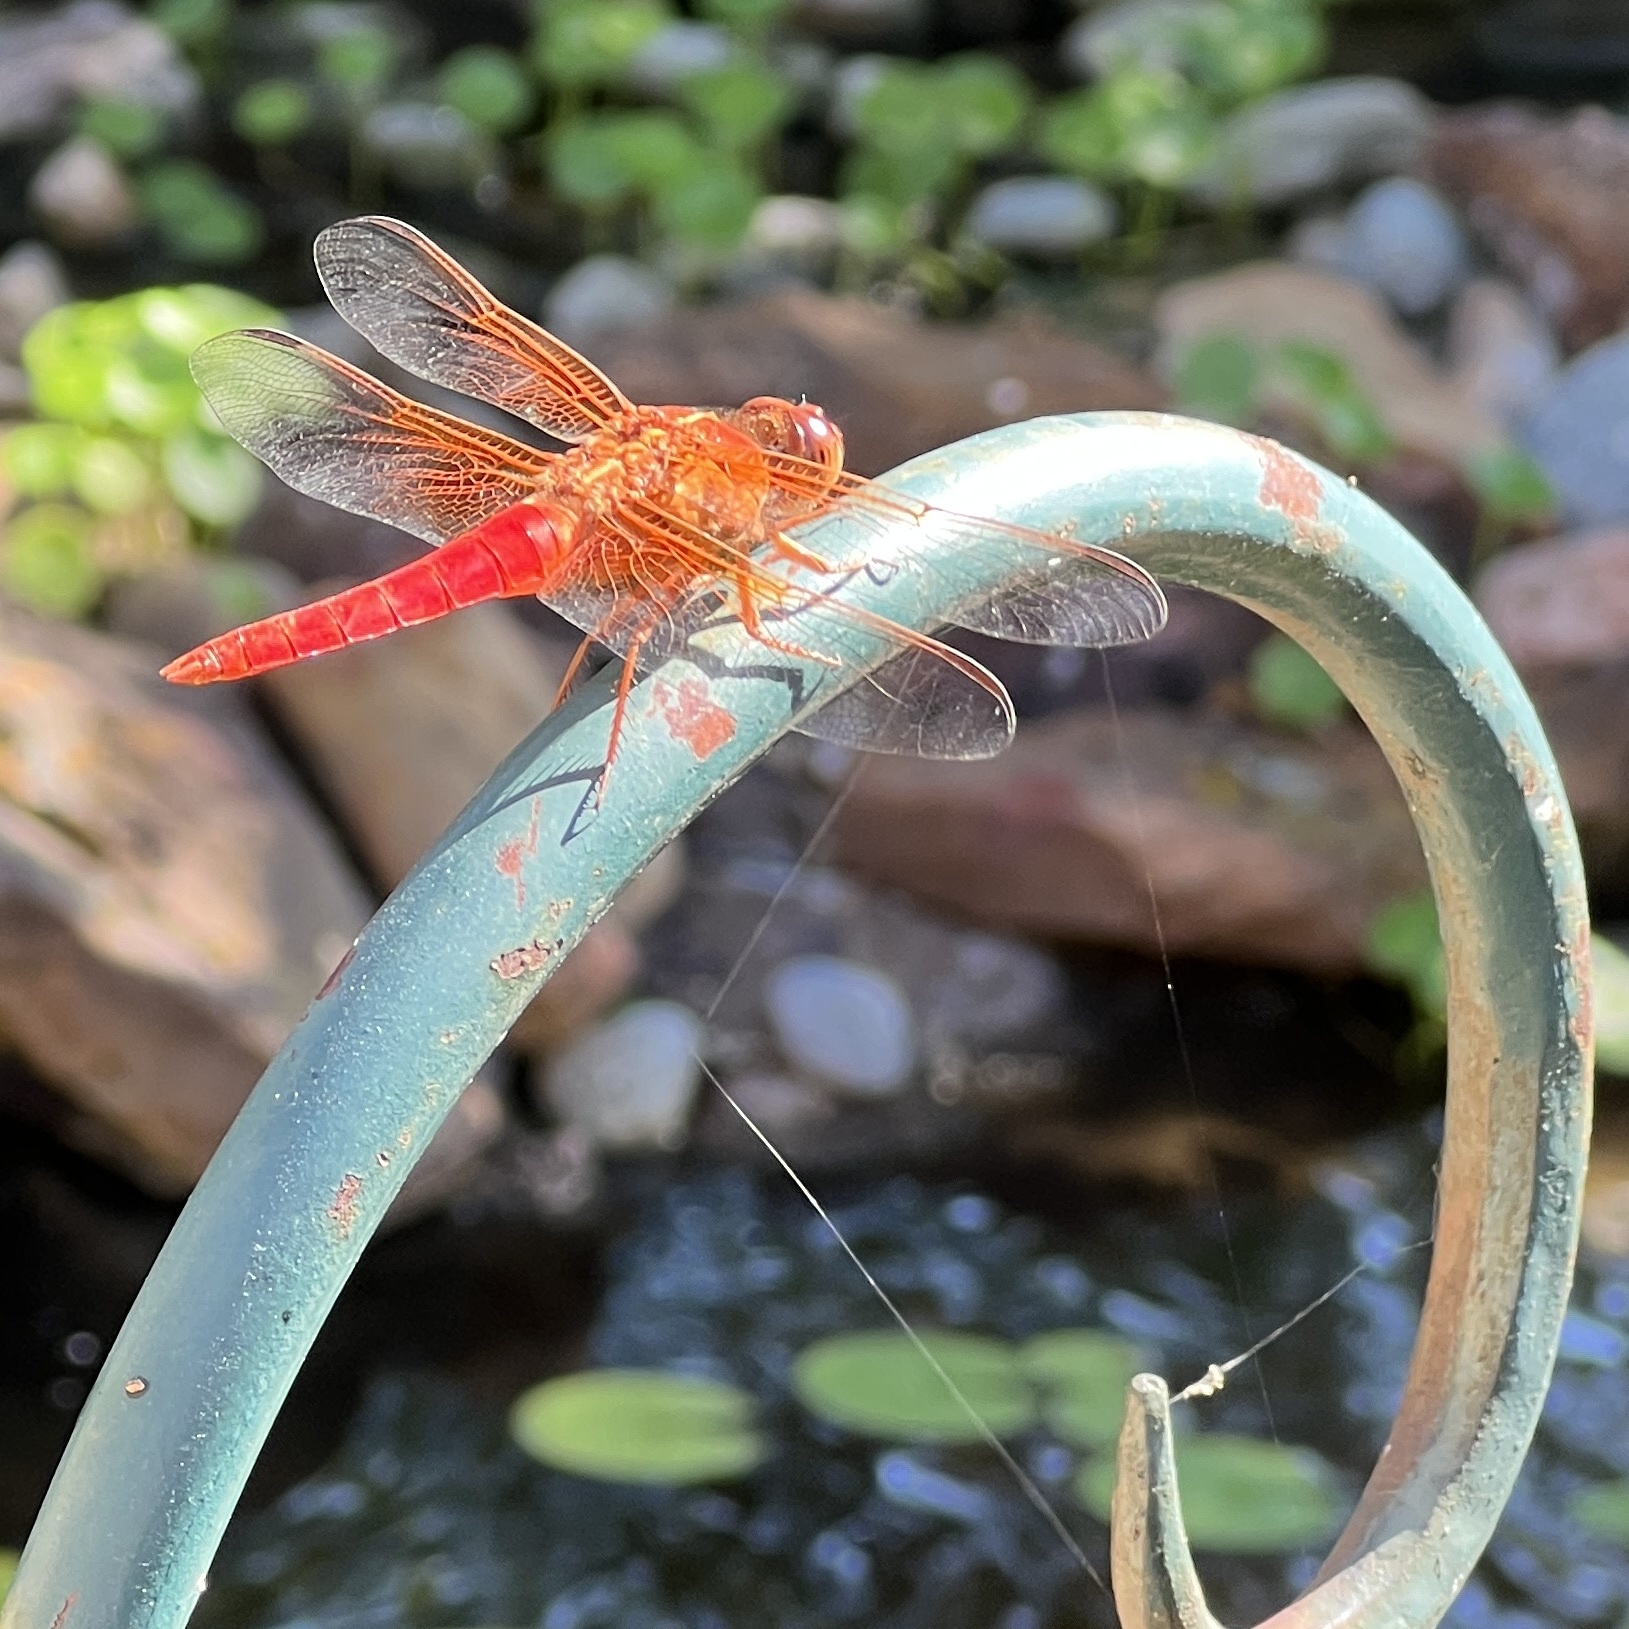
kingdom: Animalia
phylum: Arthropoda
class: Insecta
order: Odonata
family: Libellulidae
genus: Libellula
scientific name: Libellula croceipennis
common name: Neon skimmer
